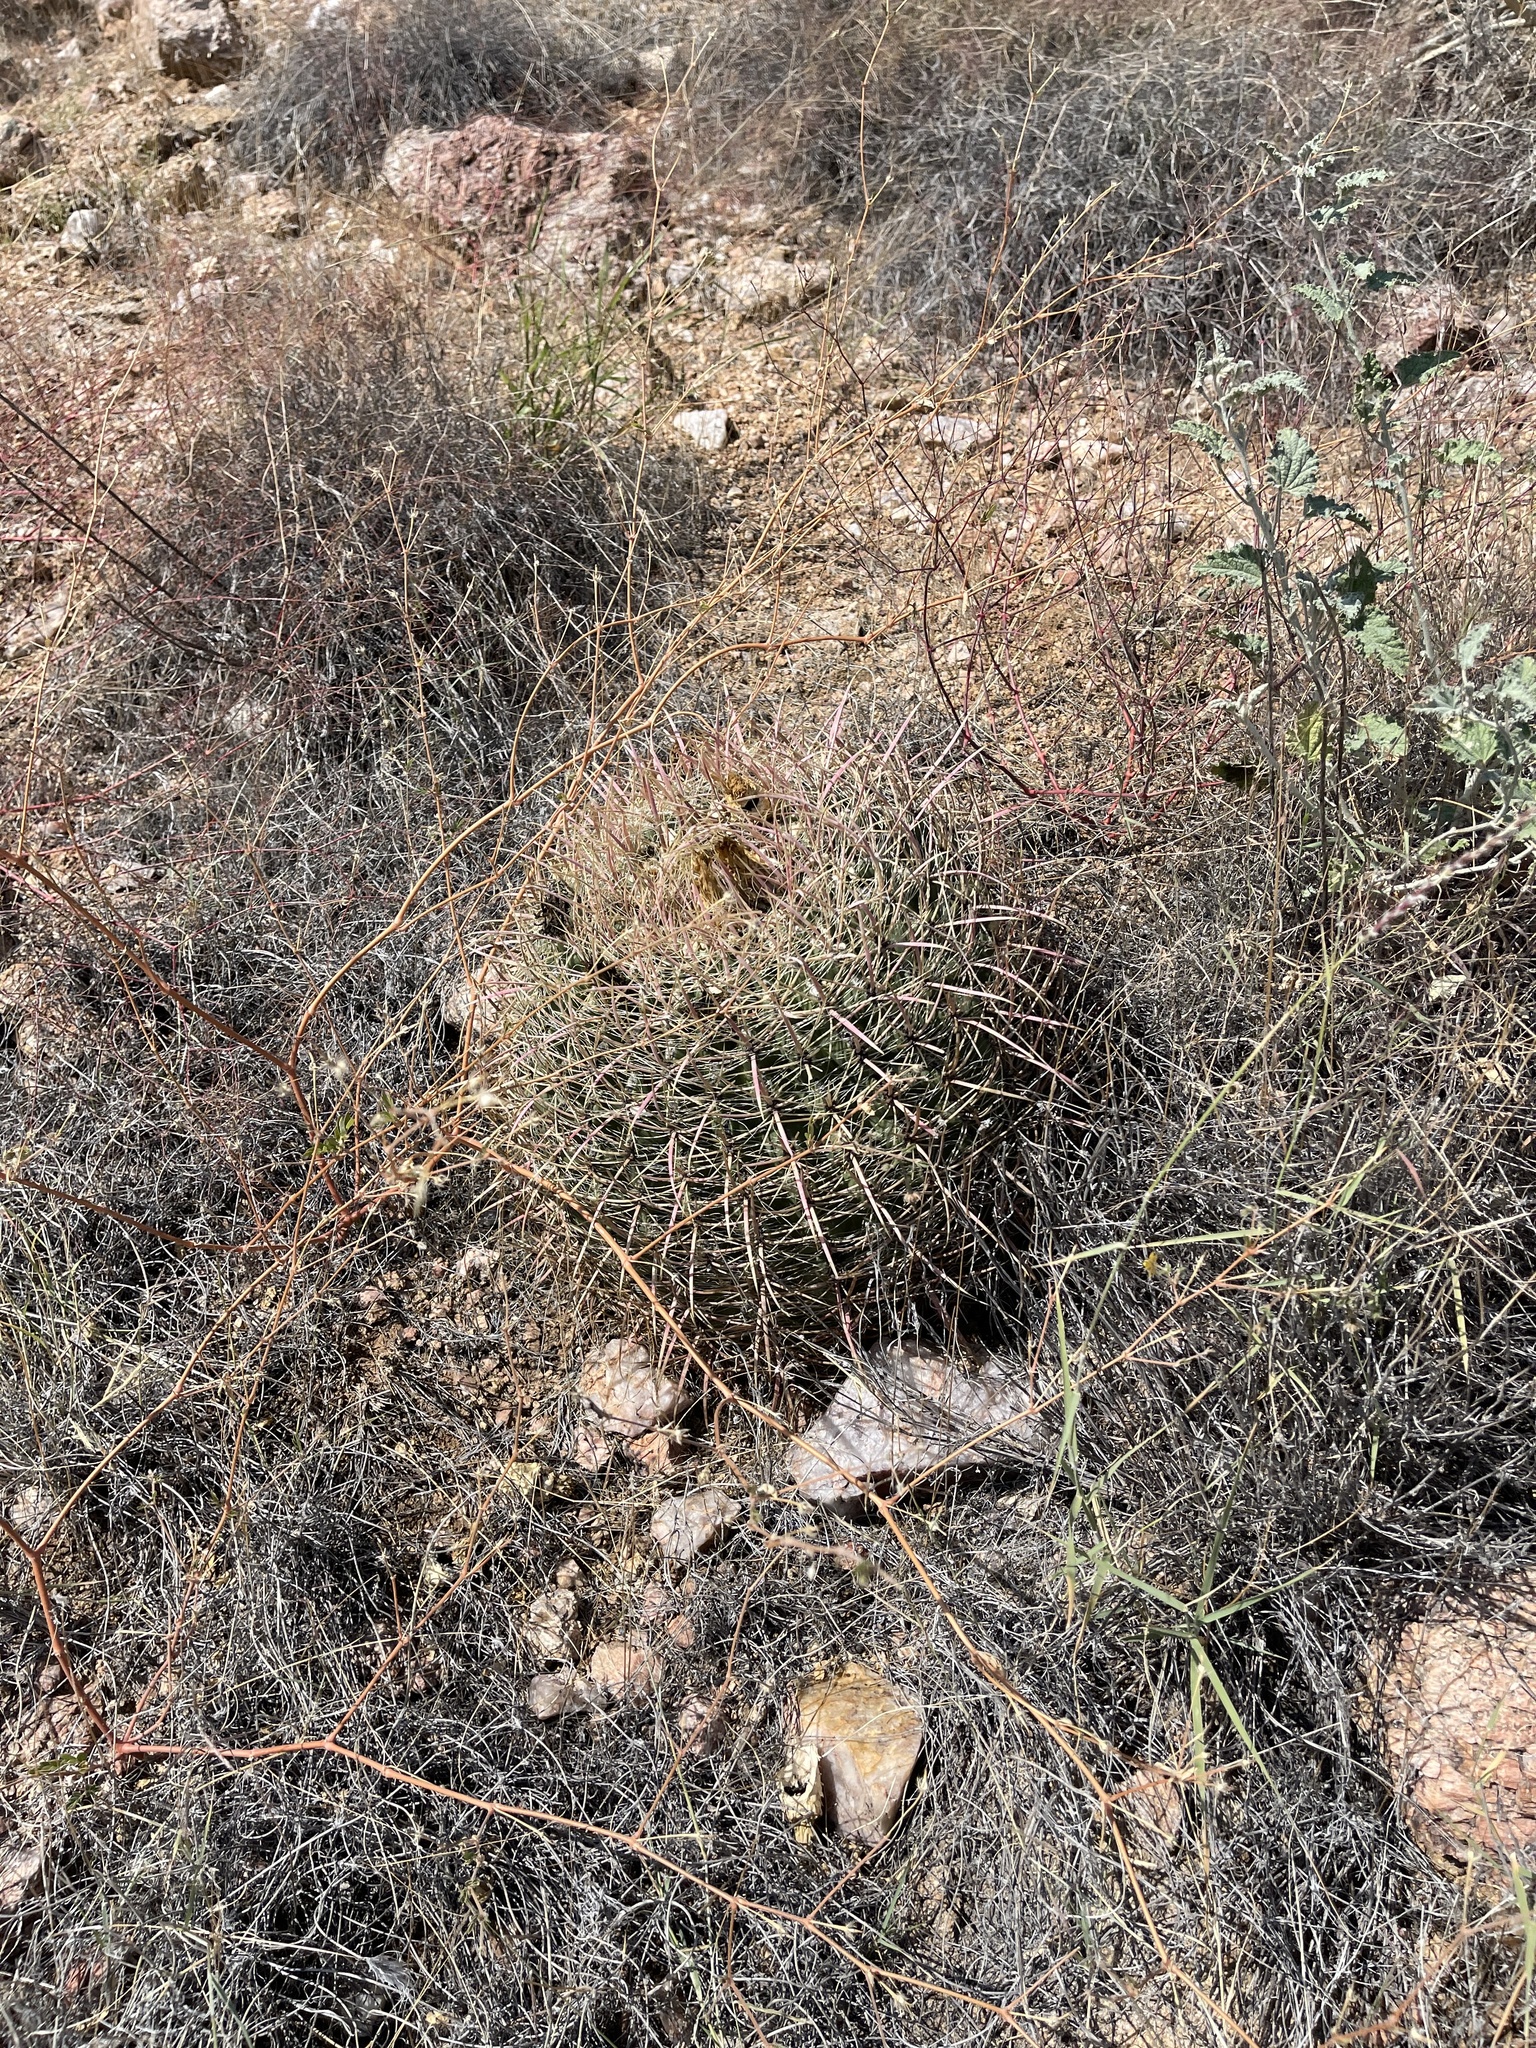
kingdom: Plantae
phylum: Tracheophyta
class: Magnoliopsida
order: Caryophyllales
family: Cactaceae
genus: Ferocactus
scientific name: Ferocactus cylindraceus
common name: California barrel cactus
